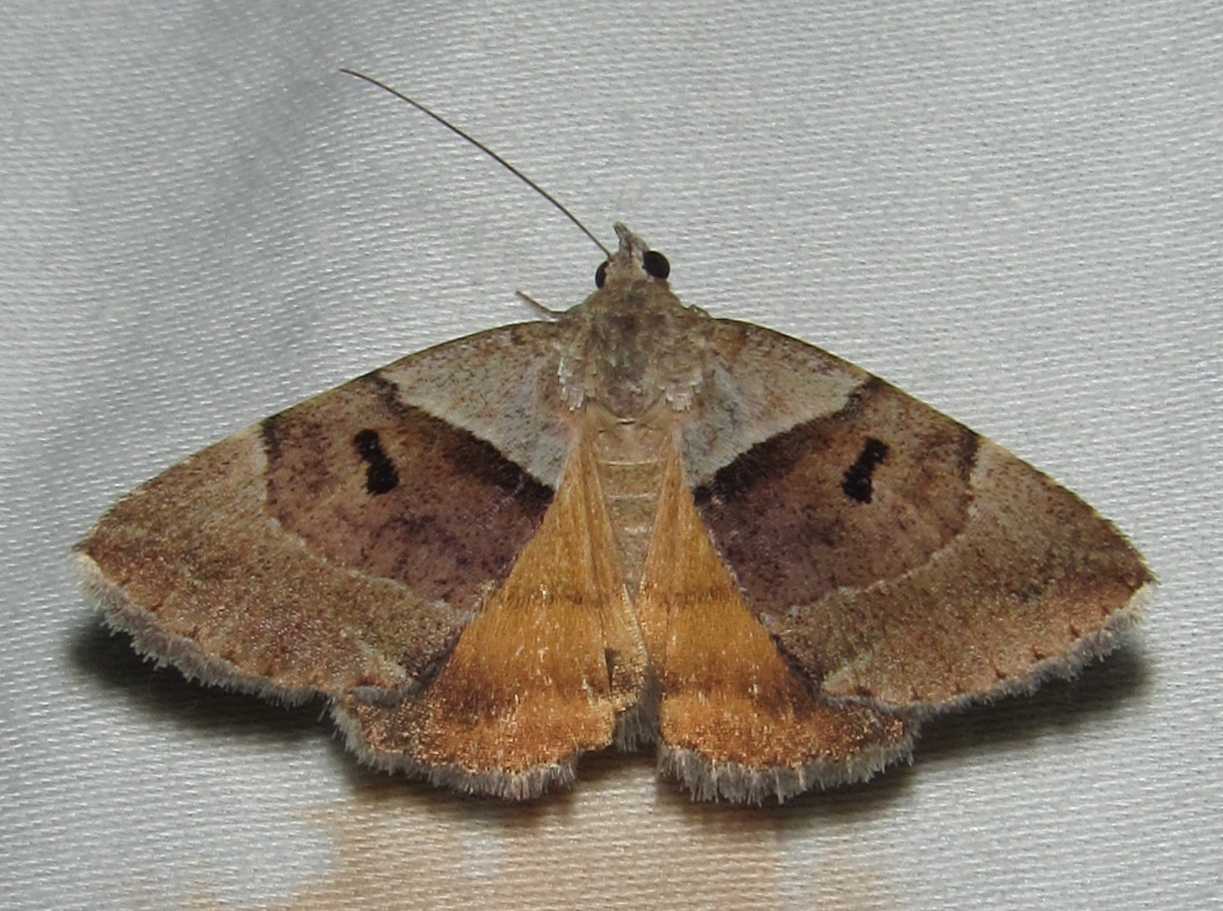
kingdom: Animalia
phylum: Arthropoda
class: Insecta
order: Lepidoptera
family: Erebidae
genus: Plecopterodes
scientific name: Plecopterodes moderata
